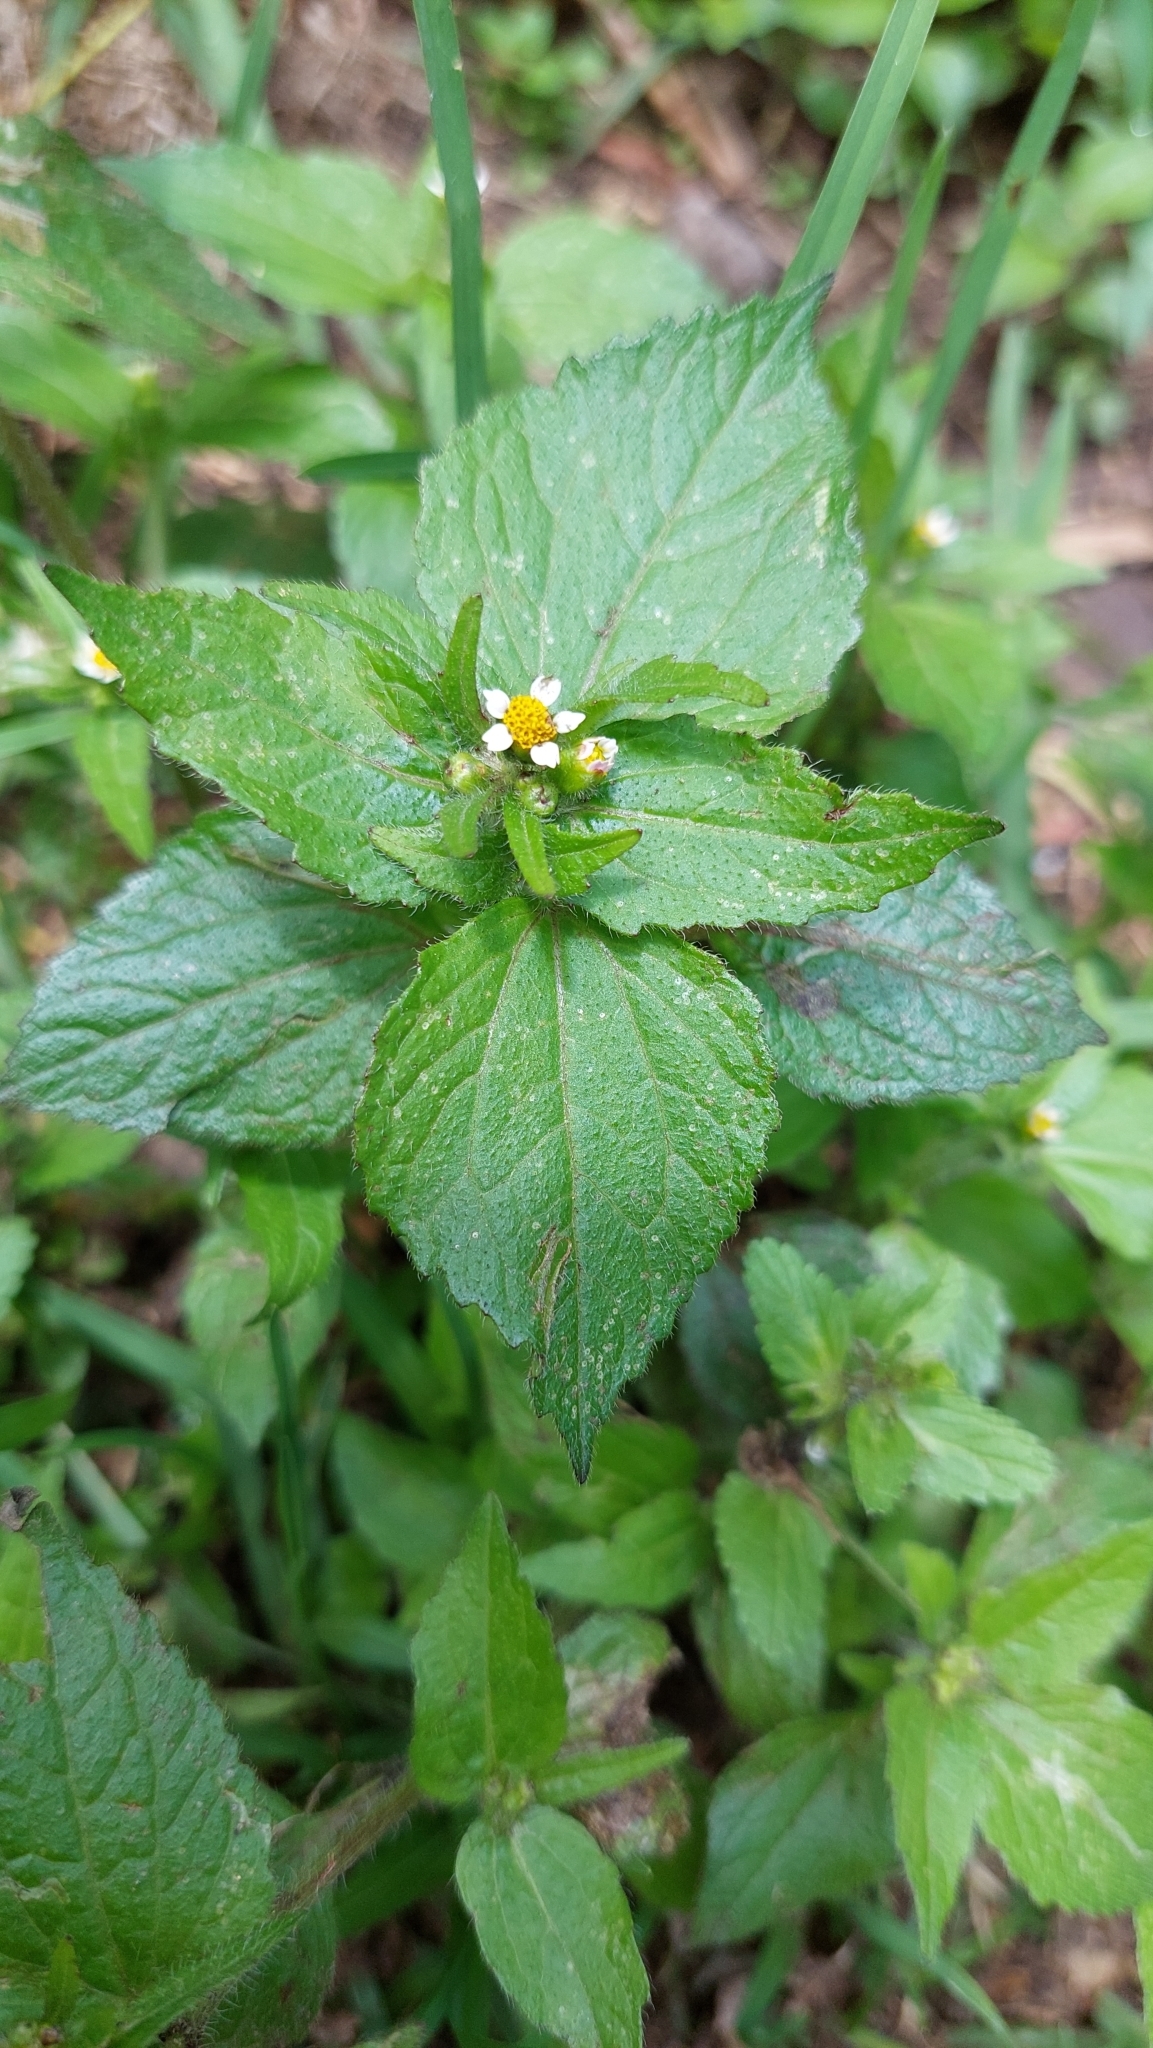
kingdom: Plantae
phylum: Tracheophyta
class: Magnoliopsida
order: Asterales
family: Asteraceae
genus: Galinsoga
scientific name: Galinsoga quadriradiata
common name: Shaggy soldier
